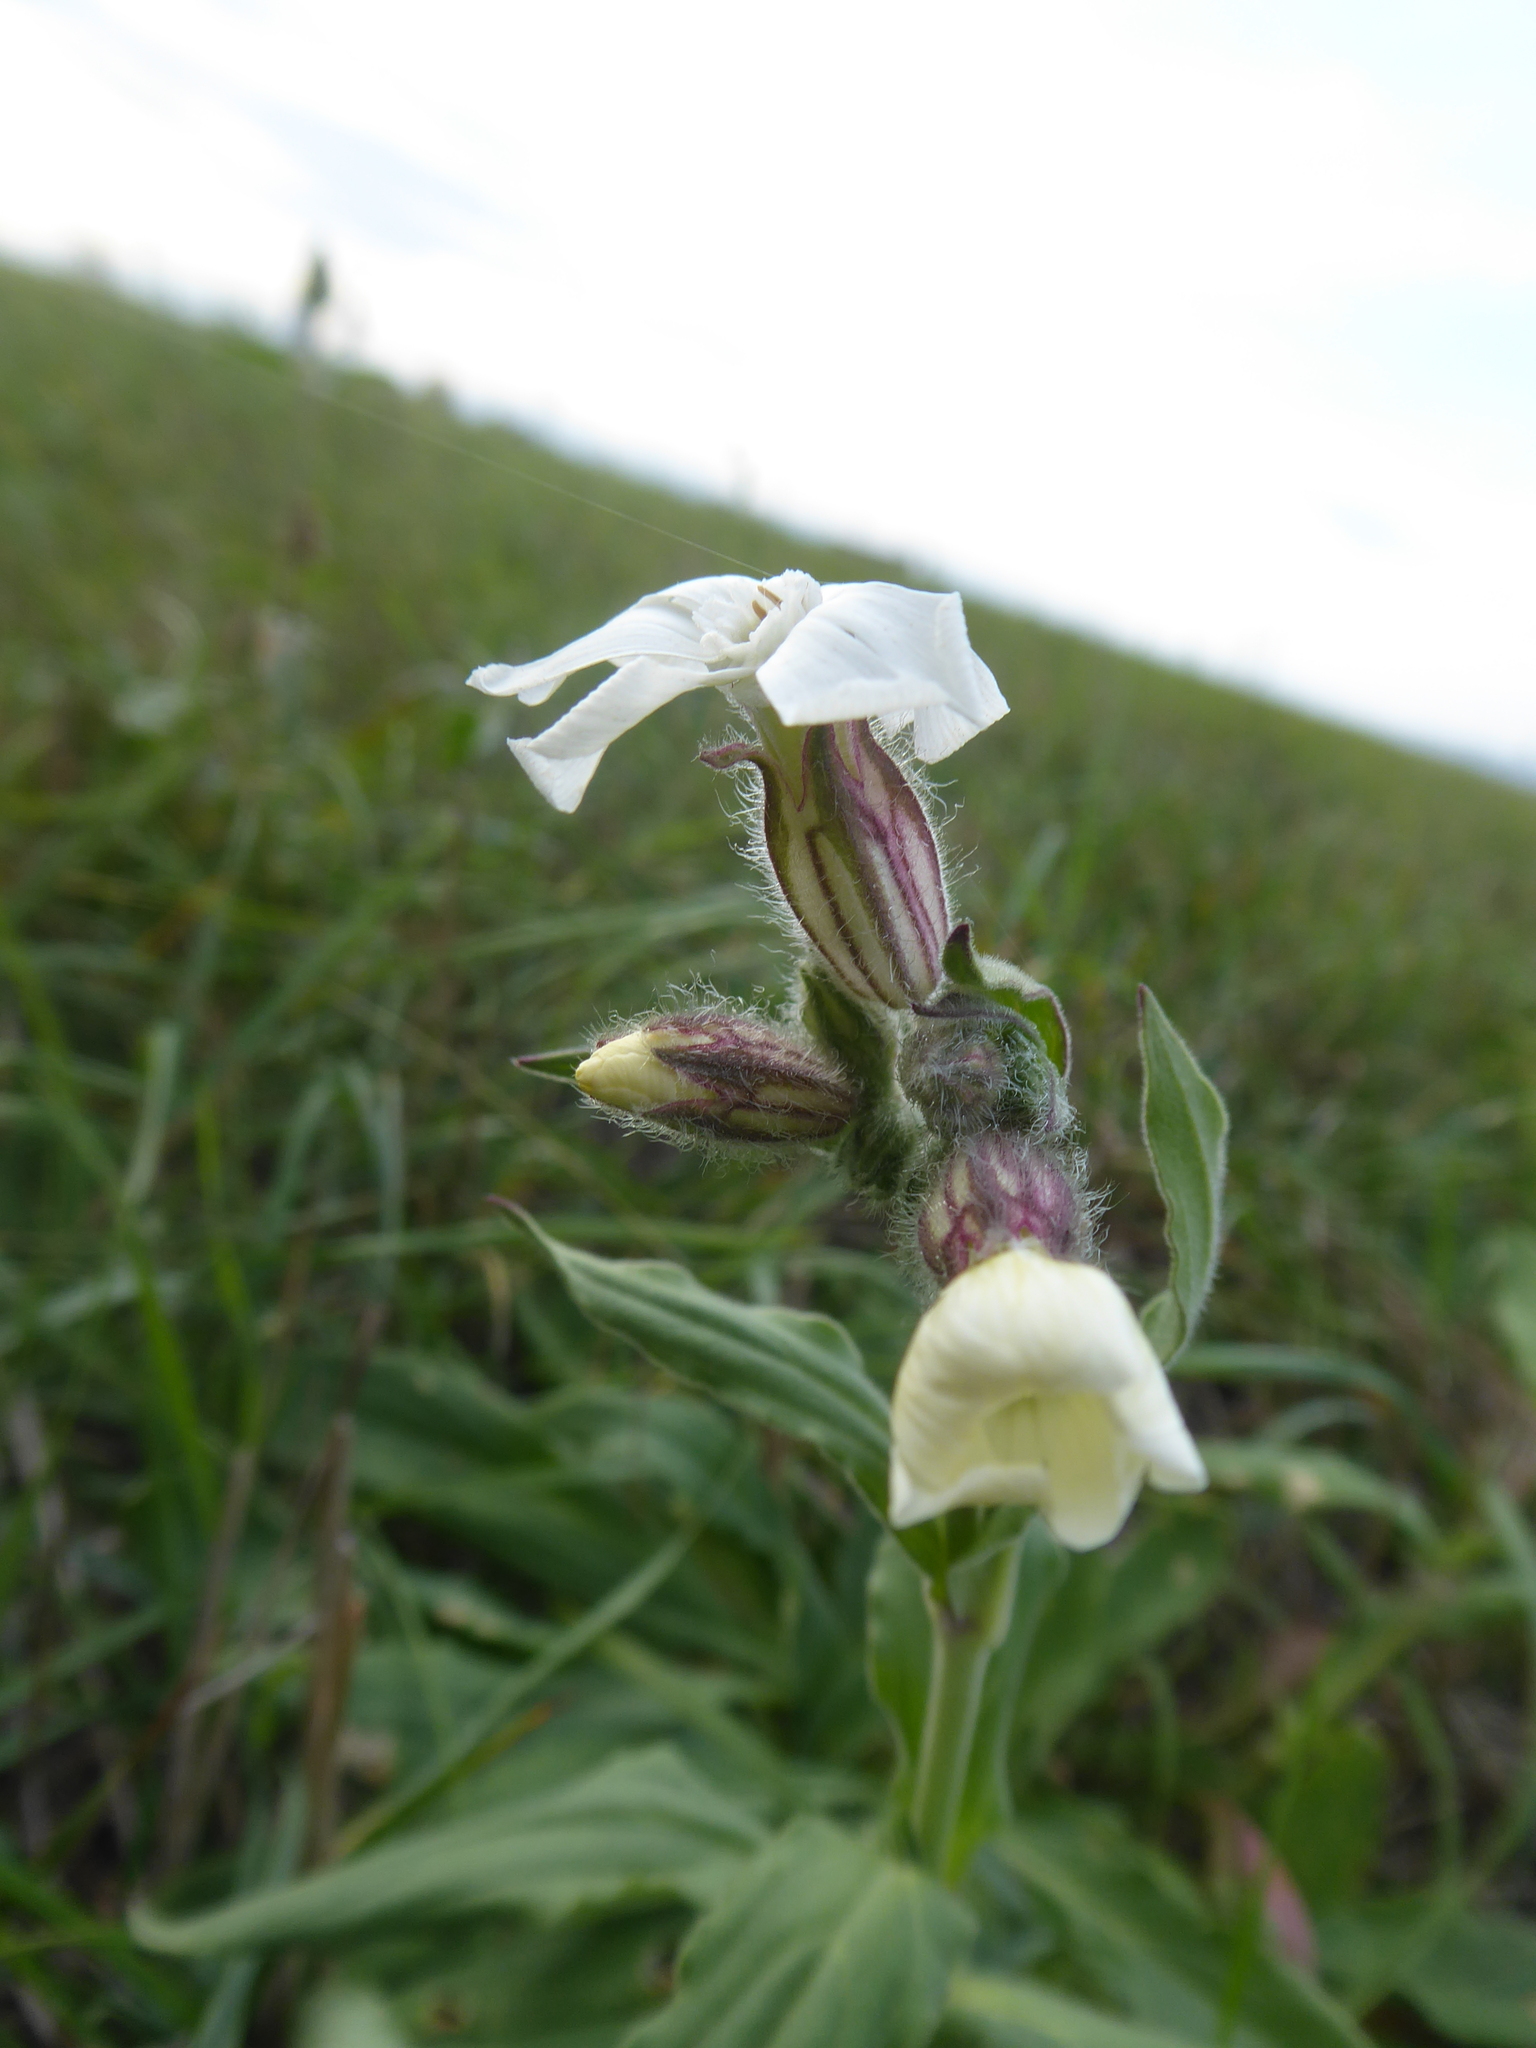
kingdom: Plantae
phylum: Tracheophyta
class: Magnoliopsida
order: Caryophyllales
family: Caryophyllaceae
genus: Silene
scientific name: Silene latifolia
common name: White campion
